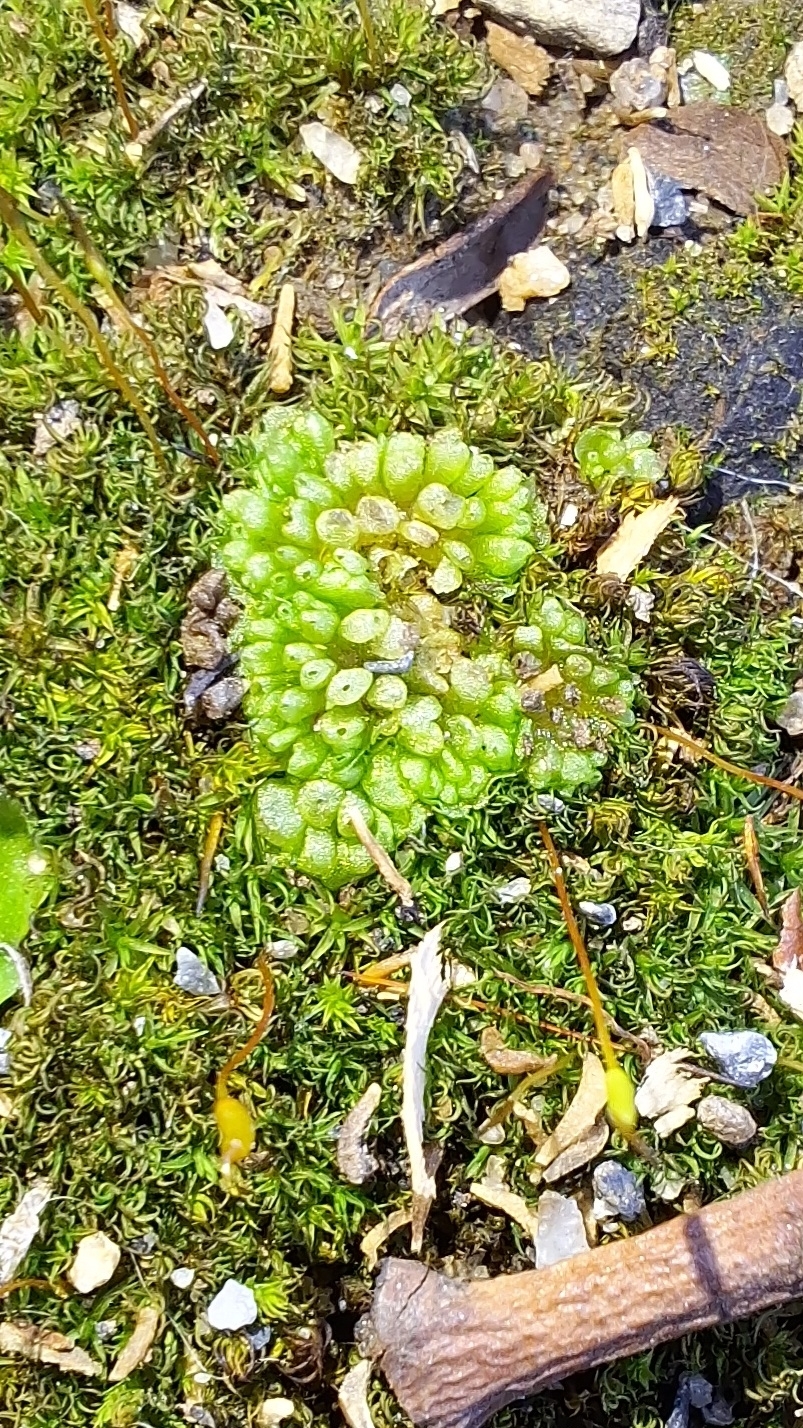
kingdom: Plantae
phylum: Marchantiophyta
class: Marchantiopsida
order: Sphaerocarpales
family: Sphaerocarpaceae
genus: Sphaerocarpos
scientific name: Sphaerocarpos texanus
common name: Texas balloonwort
